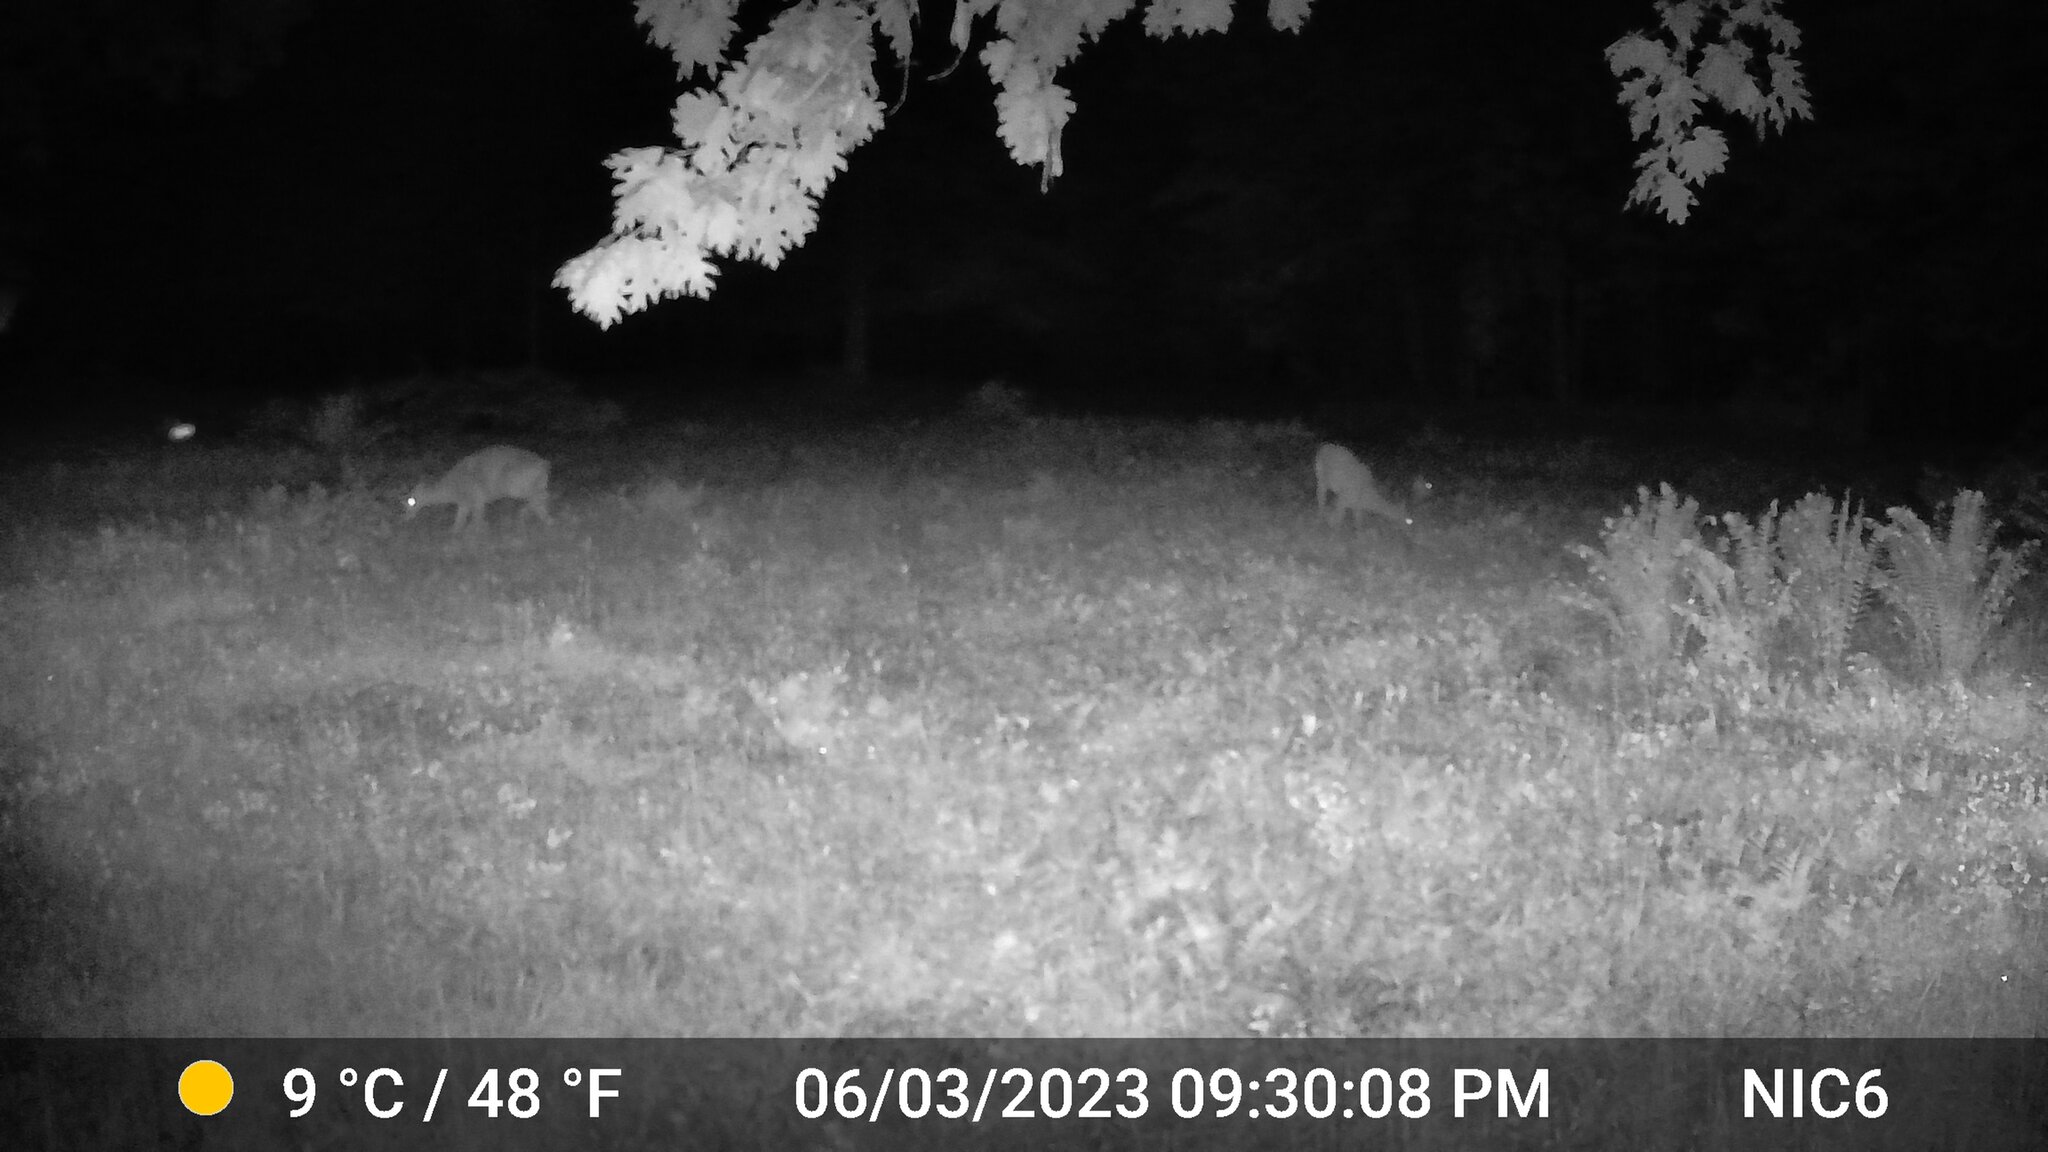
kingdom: Animalia
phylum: Chordata
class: Mammalia
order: Artiodactyla
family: Cervidae
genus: Odocoileus
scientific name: Odocoileus virginianus
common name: White-tailed deer
